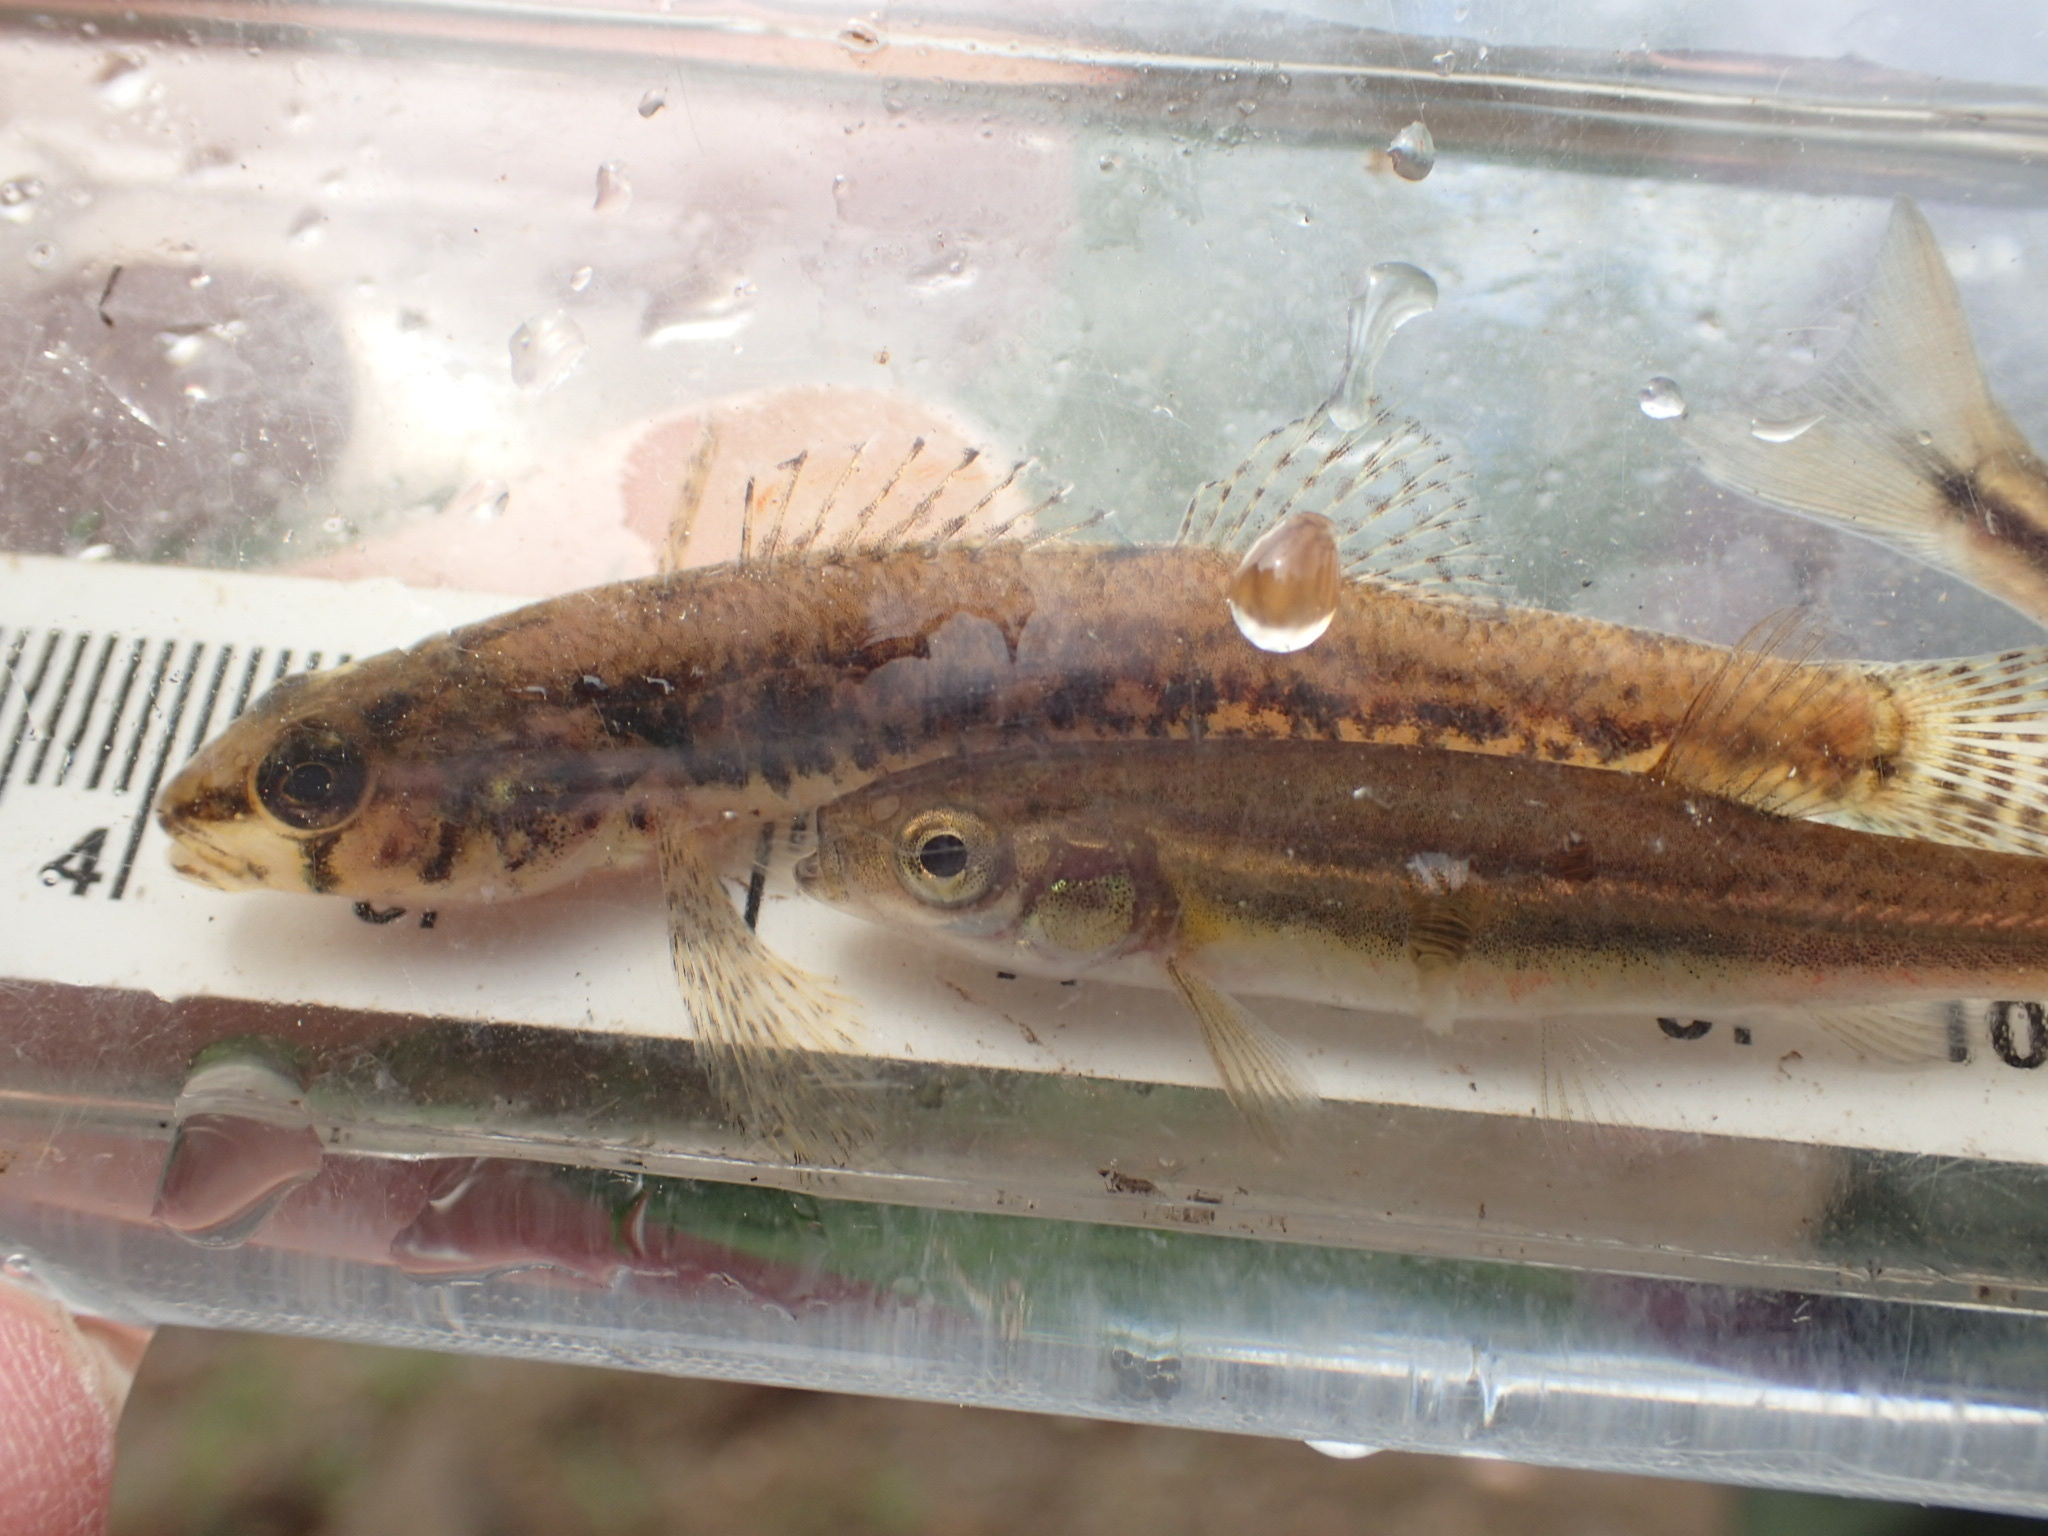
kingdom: Animalia
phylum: Chordata
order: Perciformes
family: Percidae
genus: Etheostoma
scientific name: Etheostoma exile
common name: Iowa darter
